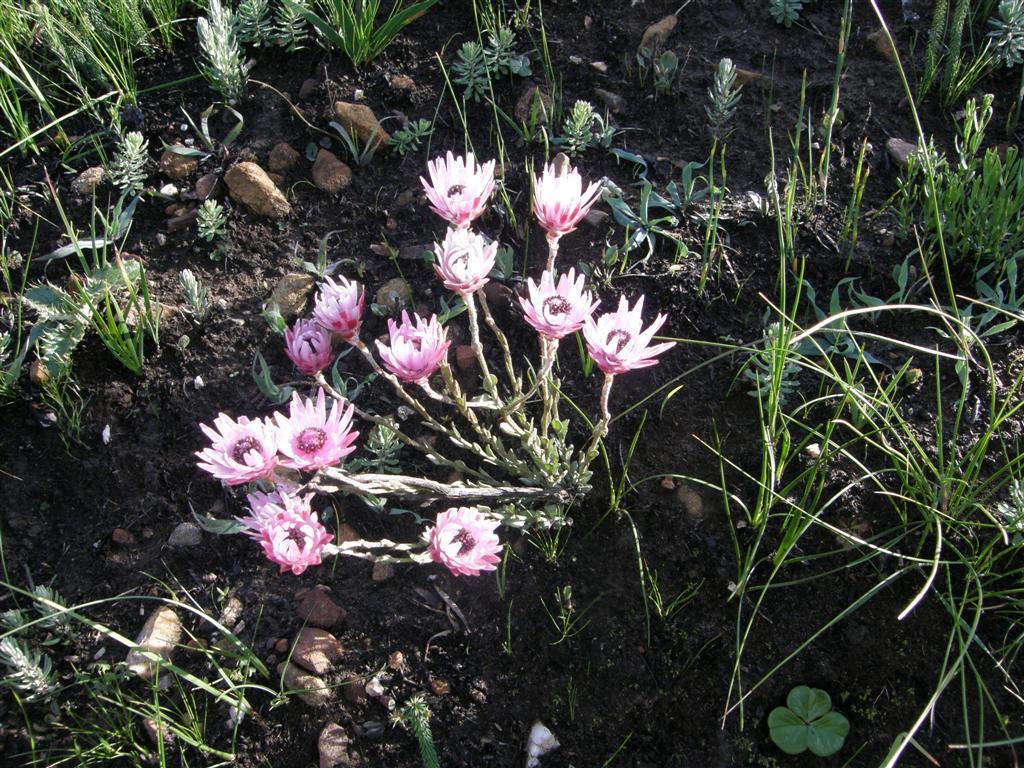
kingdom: Plantae
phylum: Tracheophyta
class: Magnoliopsida
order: Asterales
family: Asteraceae
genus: Syncarpha
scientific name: Syncarpha canescens
